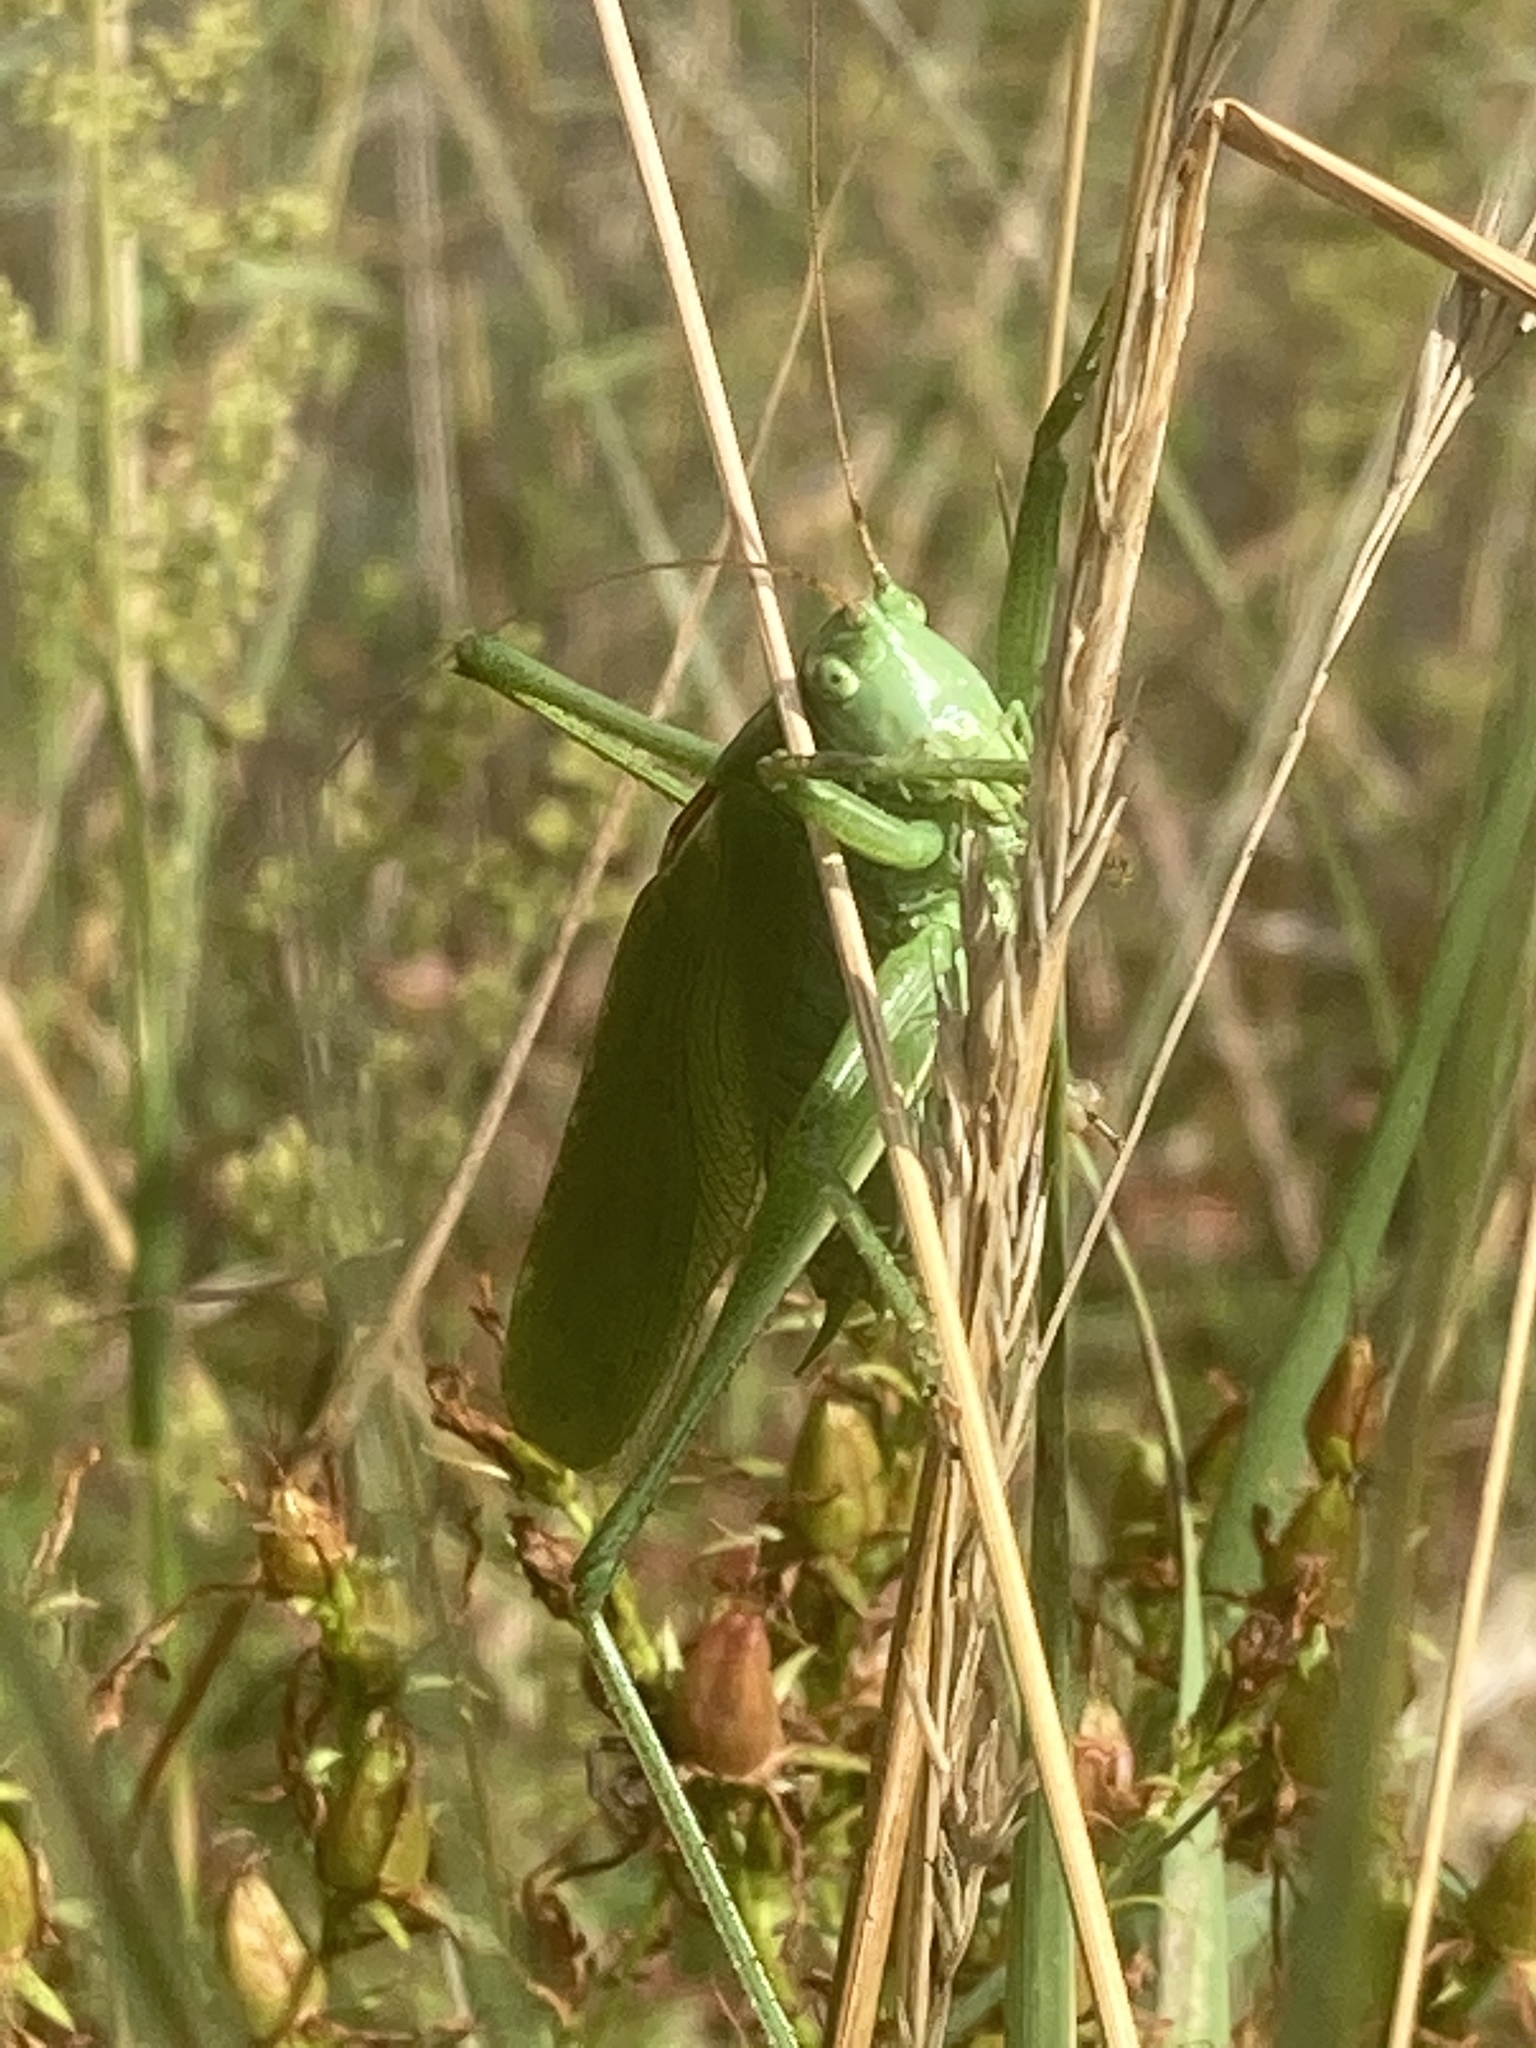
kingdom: Animalia
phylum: Arthropoda
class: Insecta
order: Orthoptera
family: Tettigoniidae
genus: Tettigonia
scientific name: Tettigonia cantans
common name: Upland green bush-cricket
